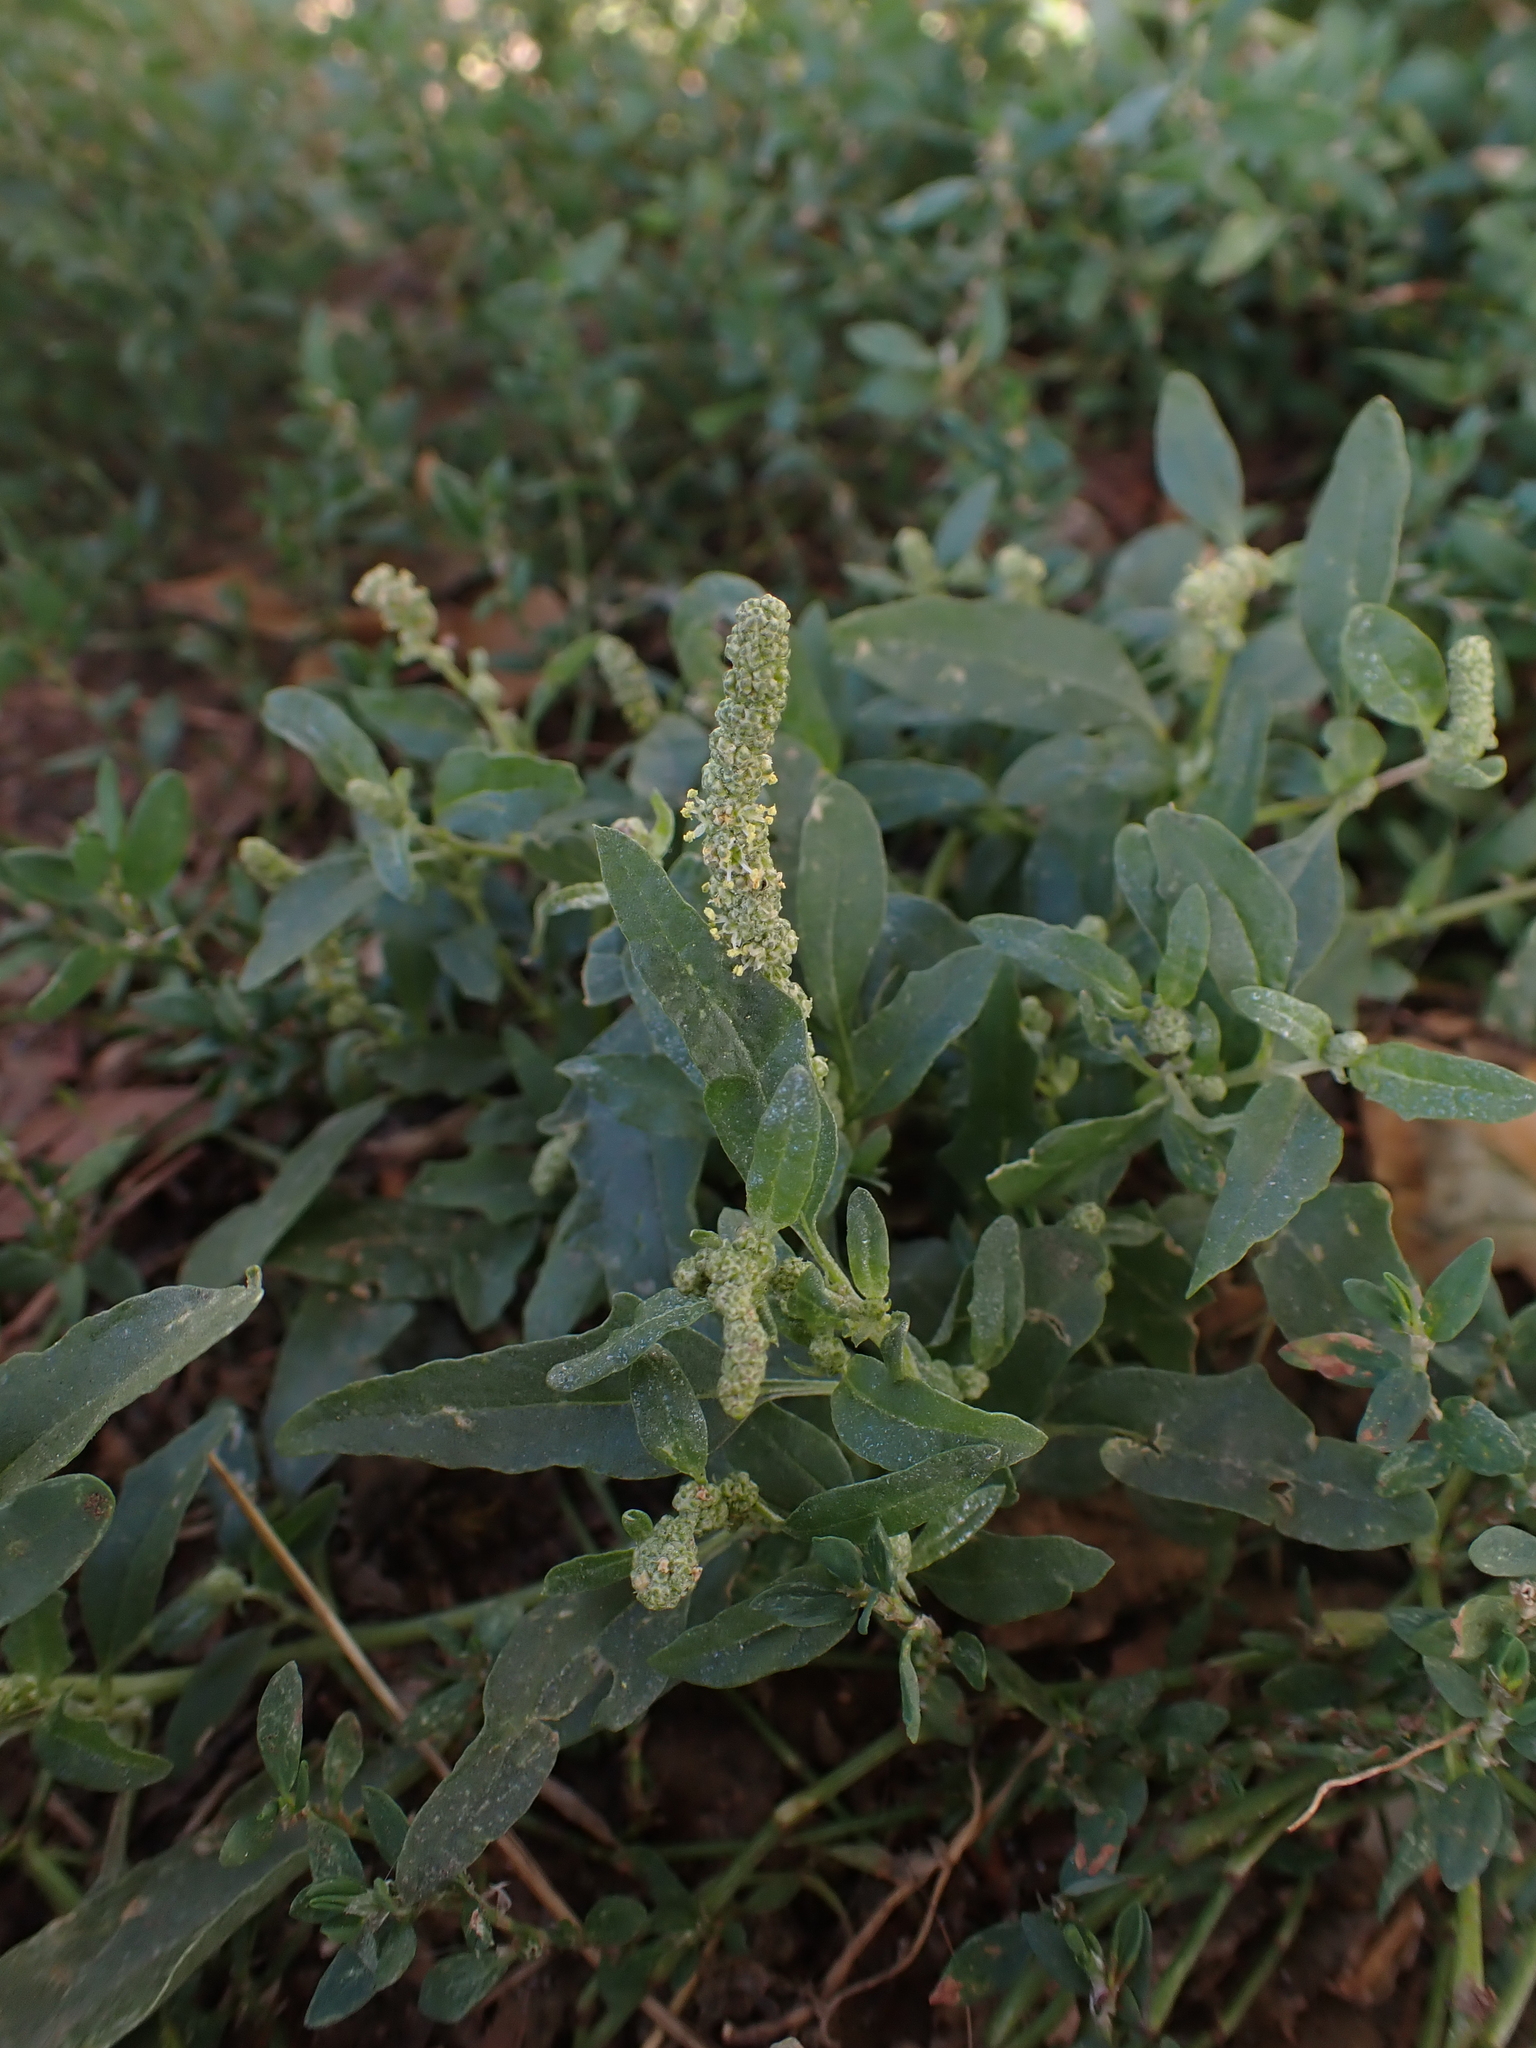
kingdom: Plantae
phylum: Tracheophyta
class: Magnoliopsida
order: Caryophyllales
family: Amaranthaceae
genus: Atriplex
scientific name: Atriplex tatarica
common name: Tatarian orache
